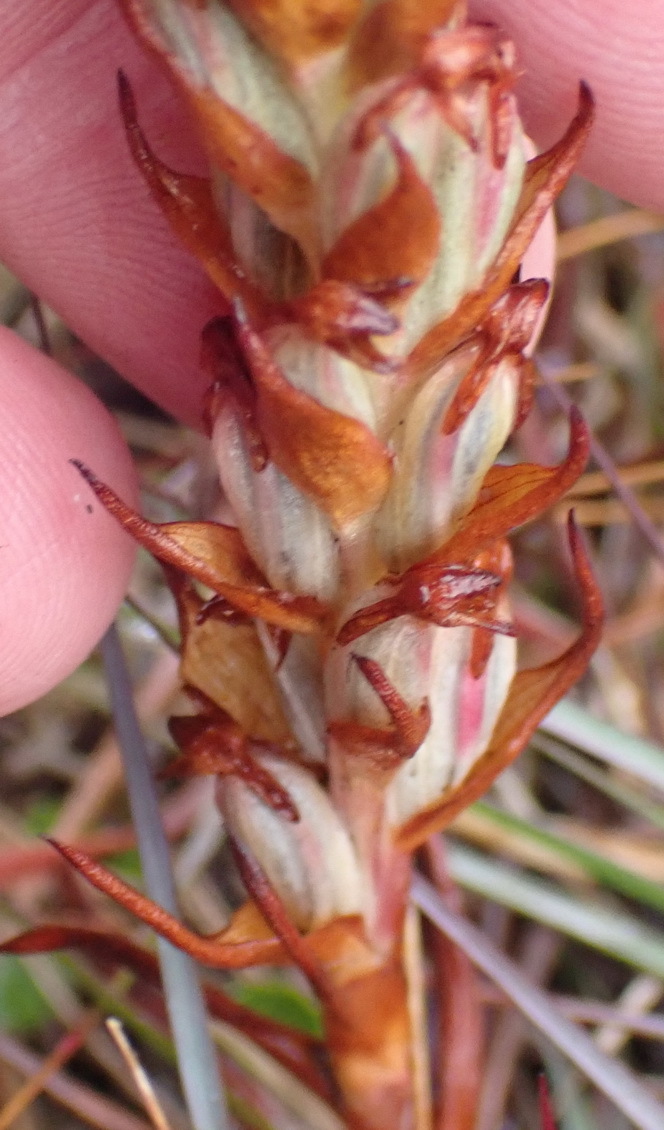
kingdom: Plantae
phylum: Tracheophyta
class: Liliopsida
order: Asparagales
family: Orchidaceae
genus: Disa
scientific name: Disa bracteata
